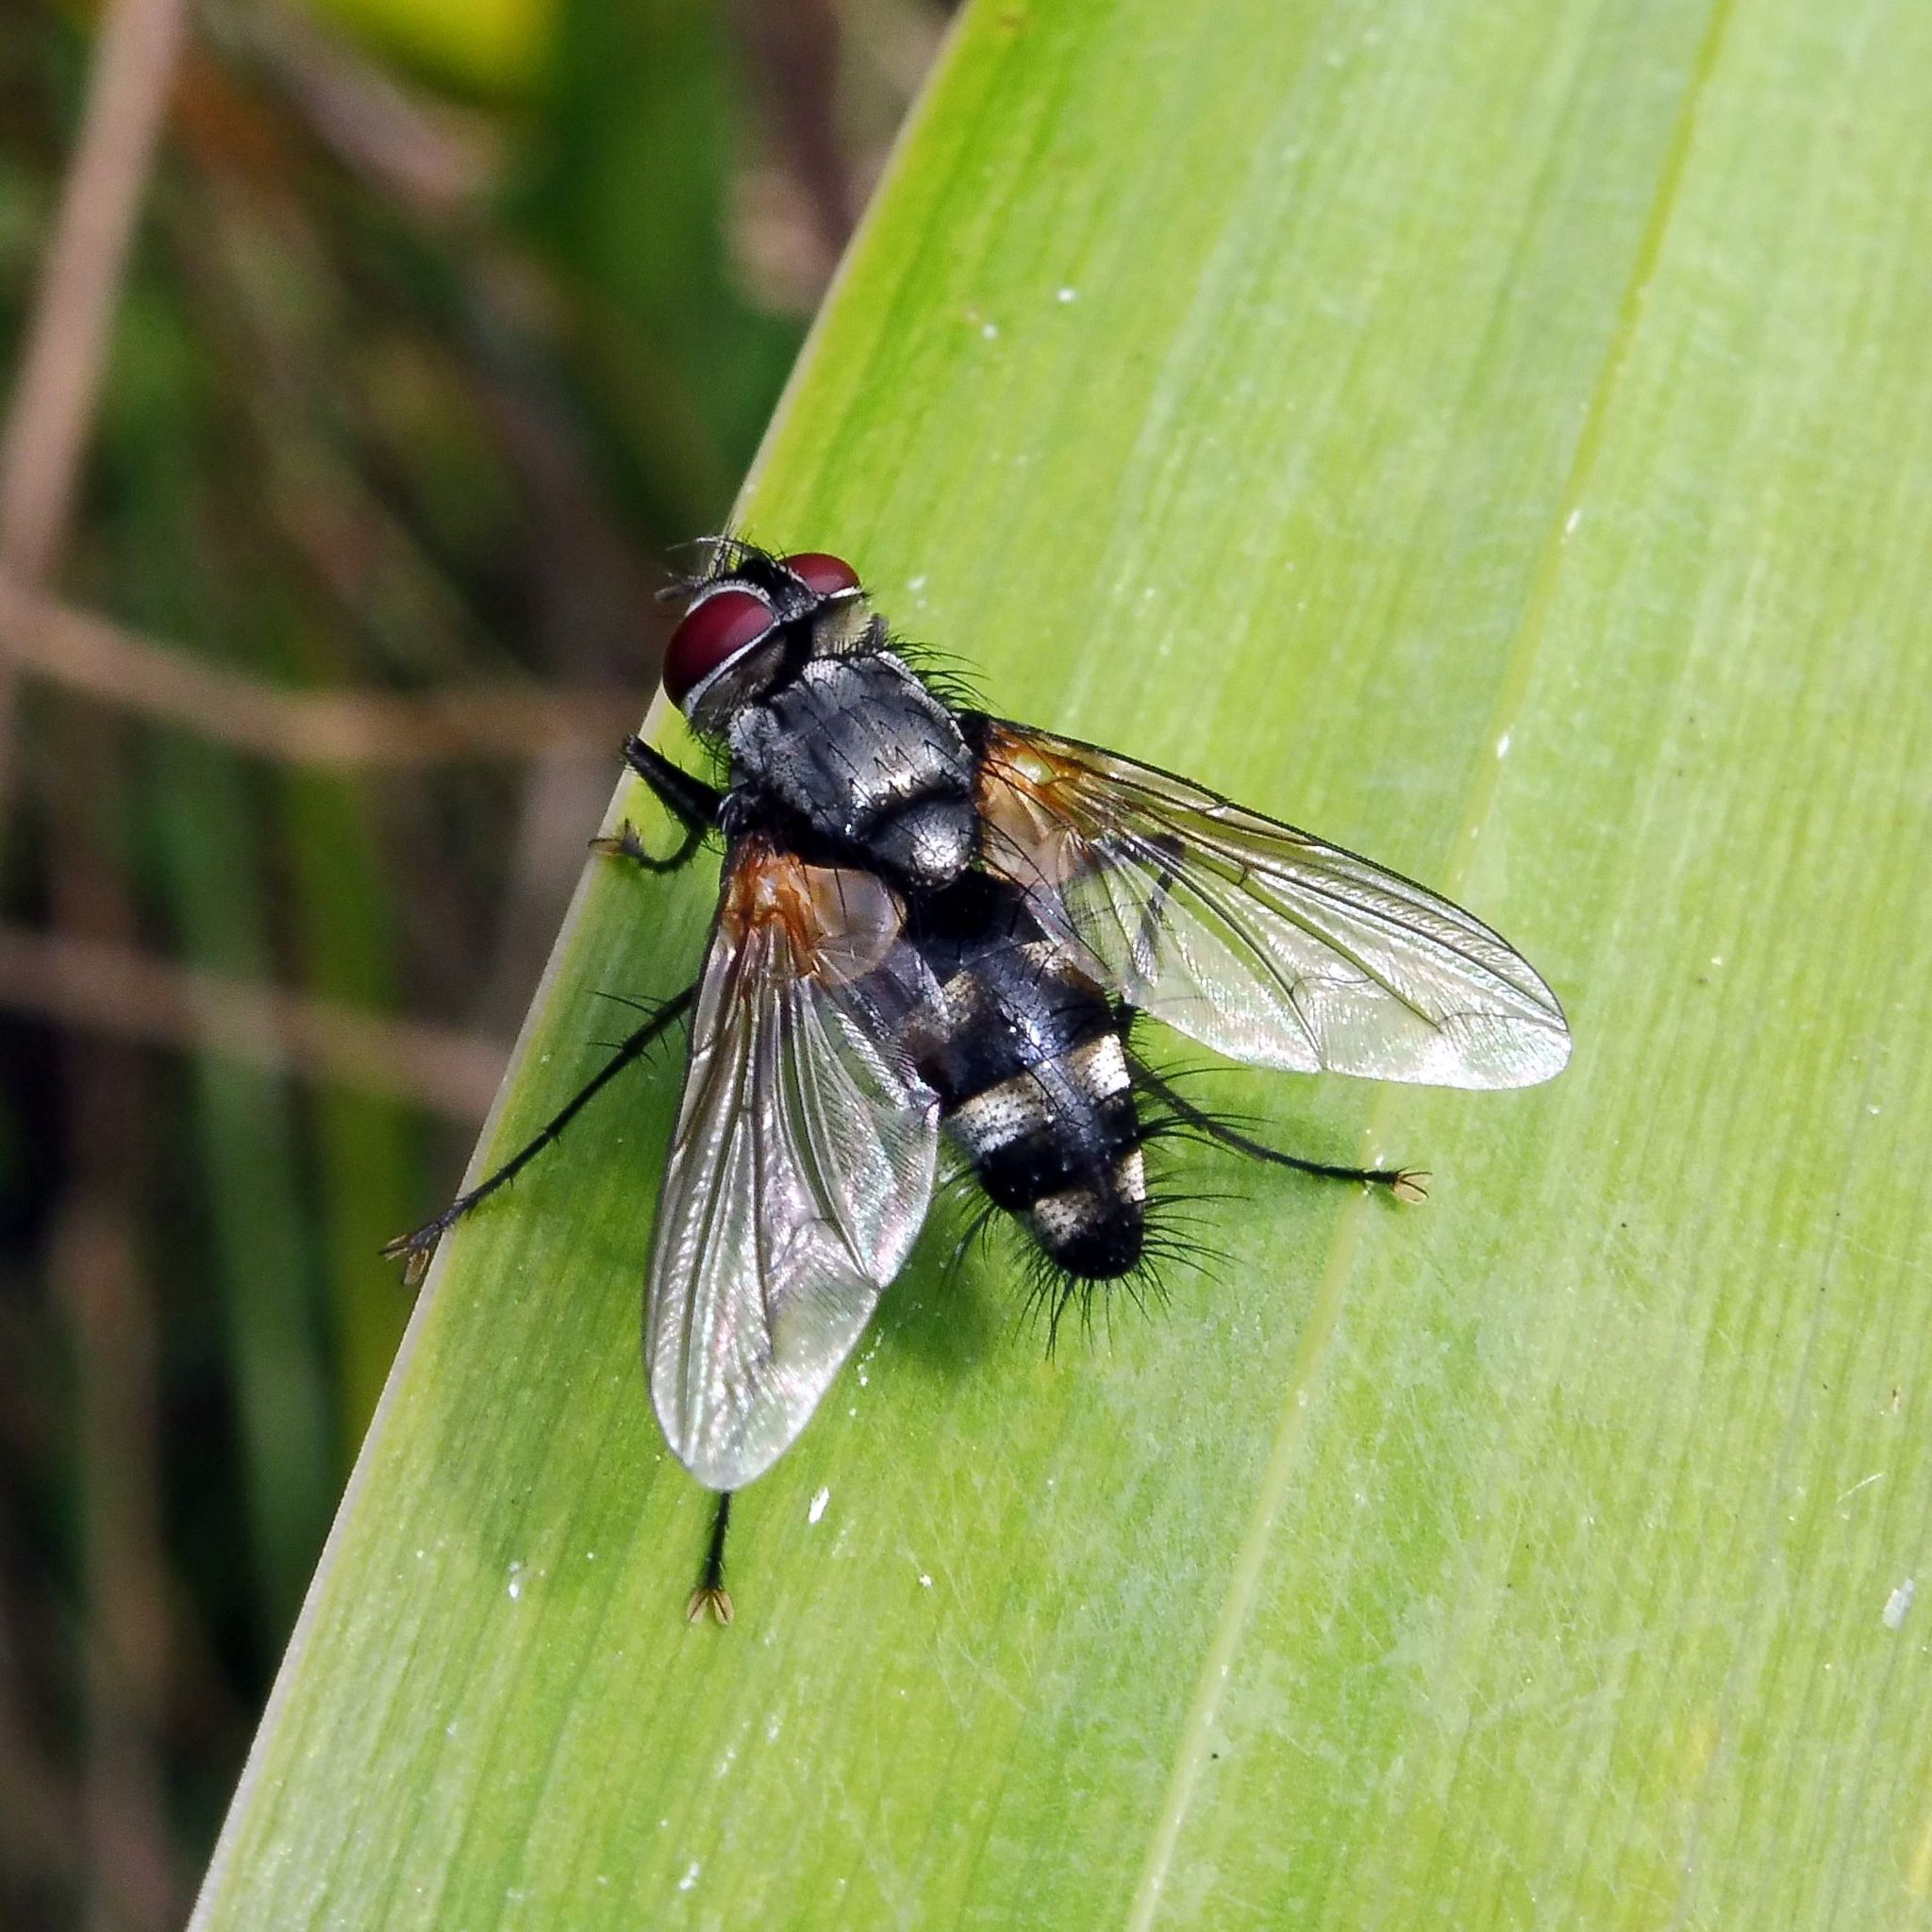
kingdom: Animalia
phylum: Arthropoda
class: Insecta
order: Diptera
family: Tachinidae
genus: Thelaira
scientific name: Thelaira nigripes
